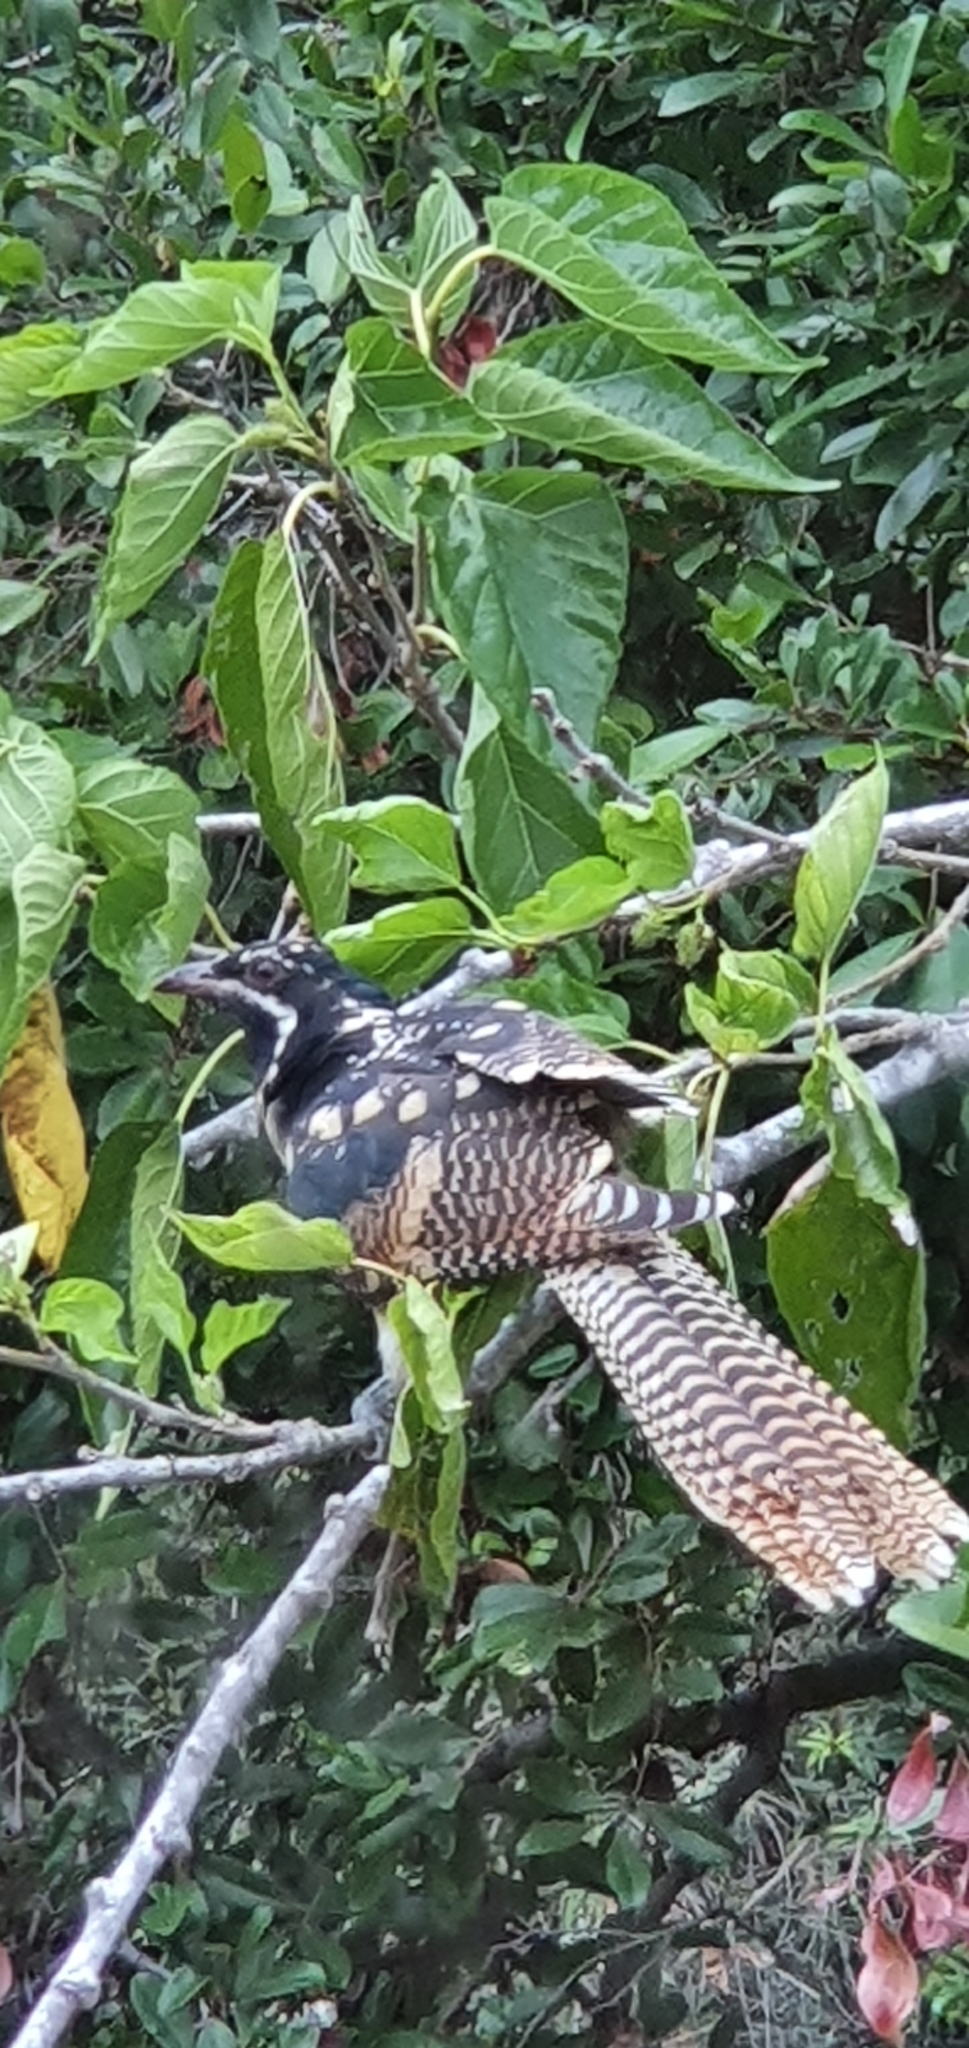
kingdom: Animalia
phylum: Chordata
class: Aves
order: Cuculiformes
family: Cuculidae
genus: Eudynamys
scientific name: Eudynamys orientalis
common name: Pacific koel
